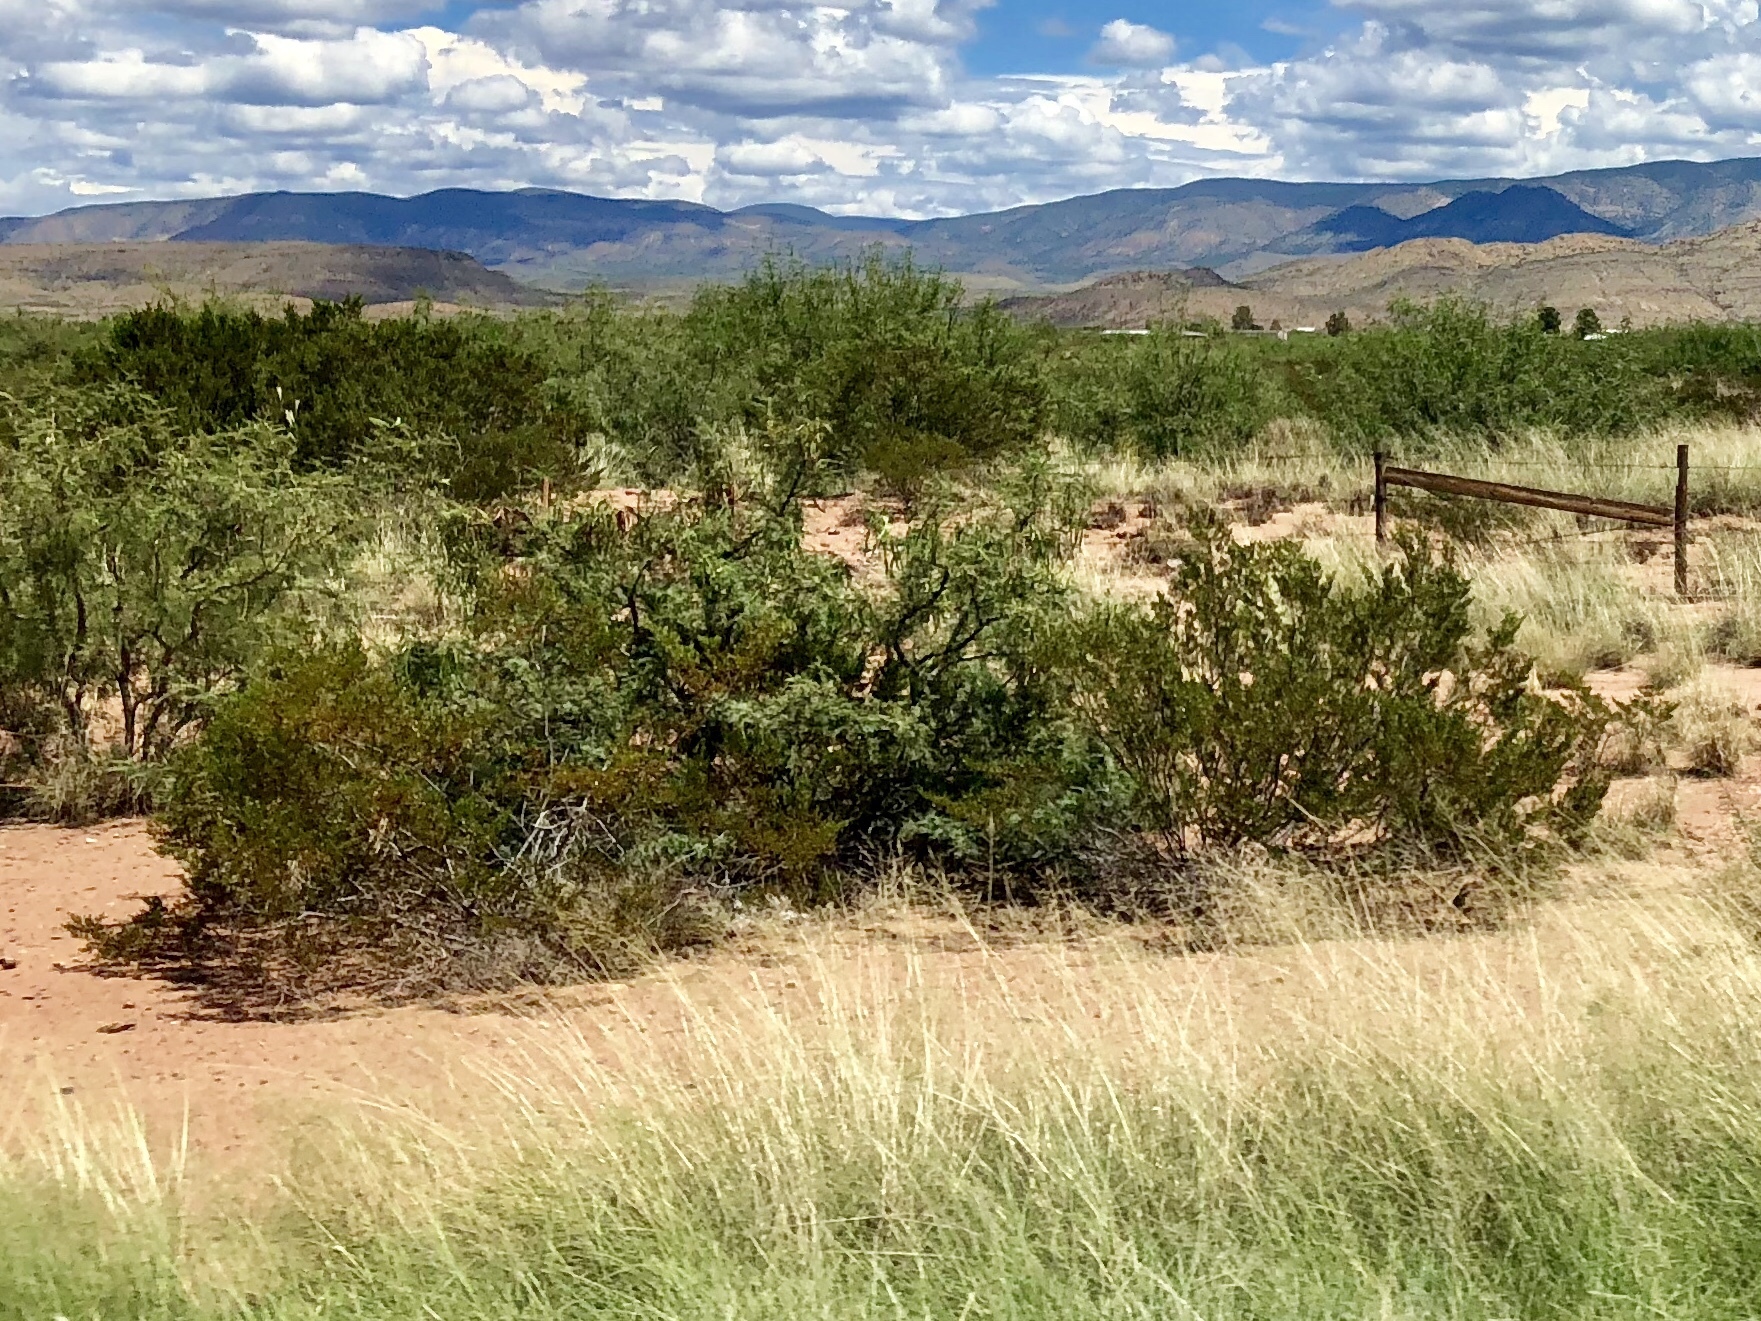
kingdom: Plantae
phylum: Tracheophyta
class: Magnoliopsida
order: Zygophyllales
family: Zygophyllaceae
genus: Larrea
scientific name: Larrea tridentata
